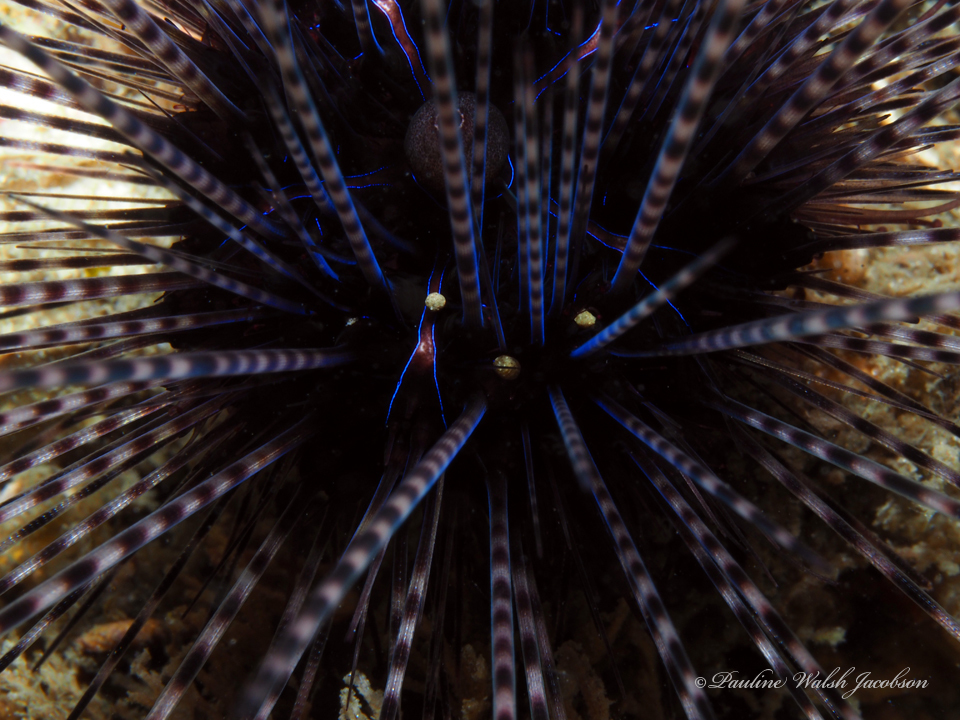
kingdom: Animalia
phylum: Echinodermata
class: Echinoidea
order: Diadematoida
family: Diadematidae
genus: Diadema
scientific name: Diadema antillarum
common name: Spiny urchin
